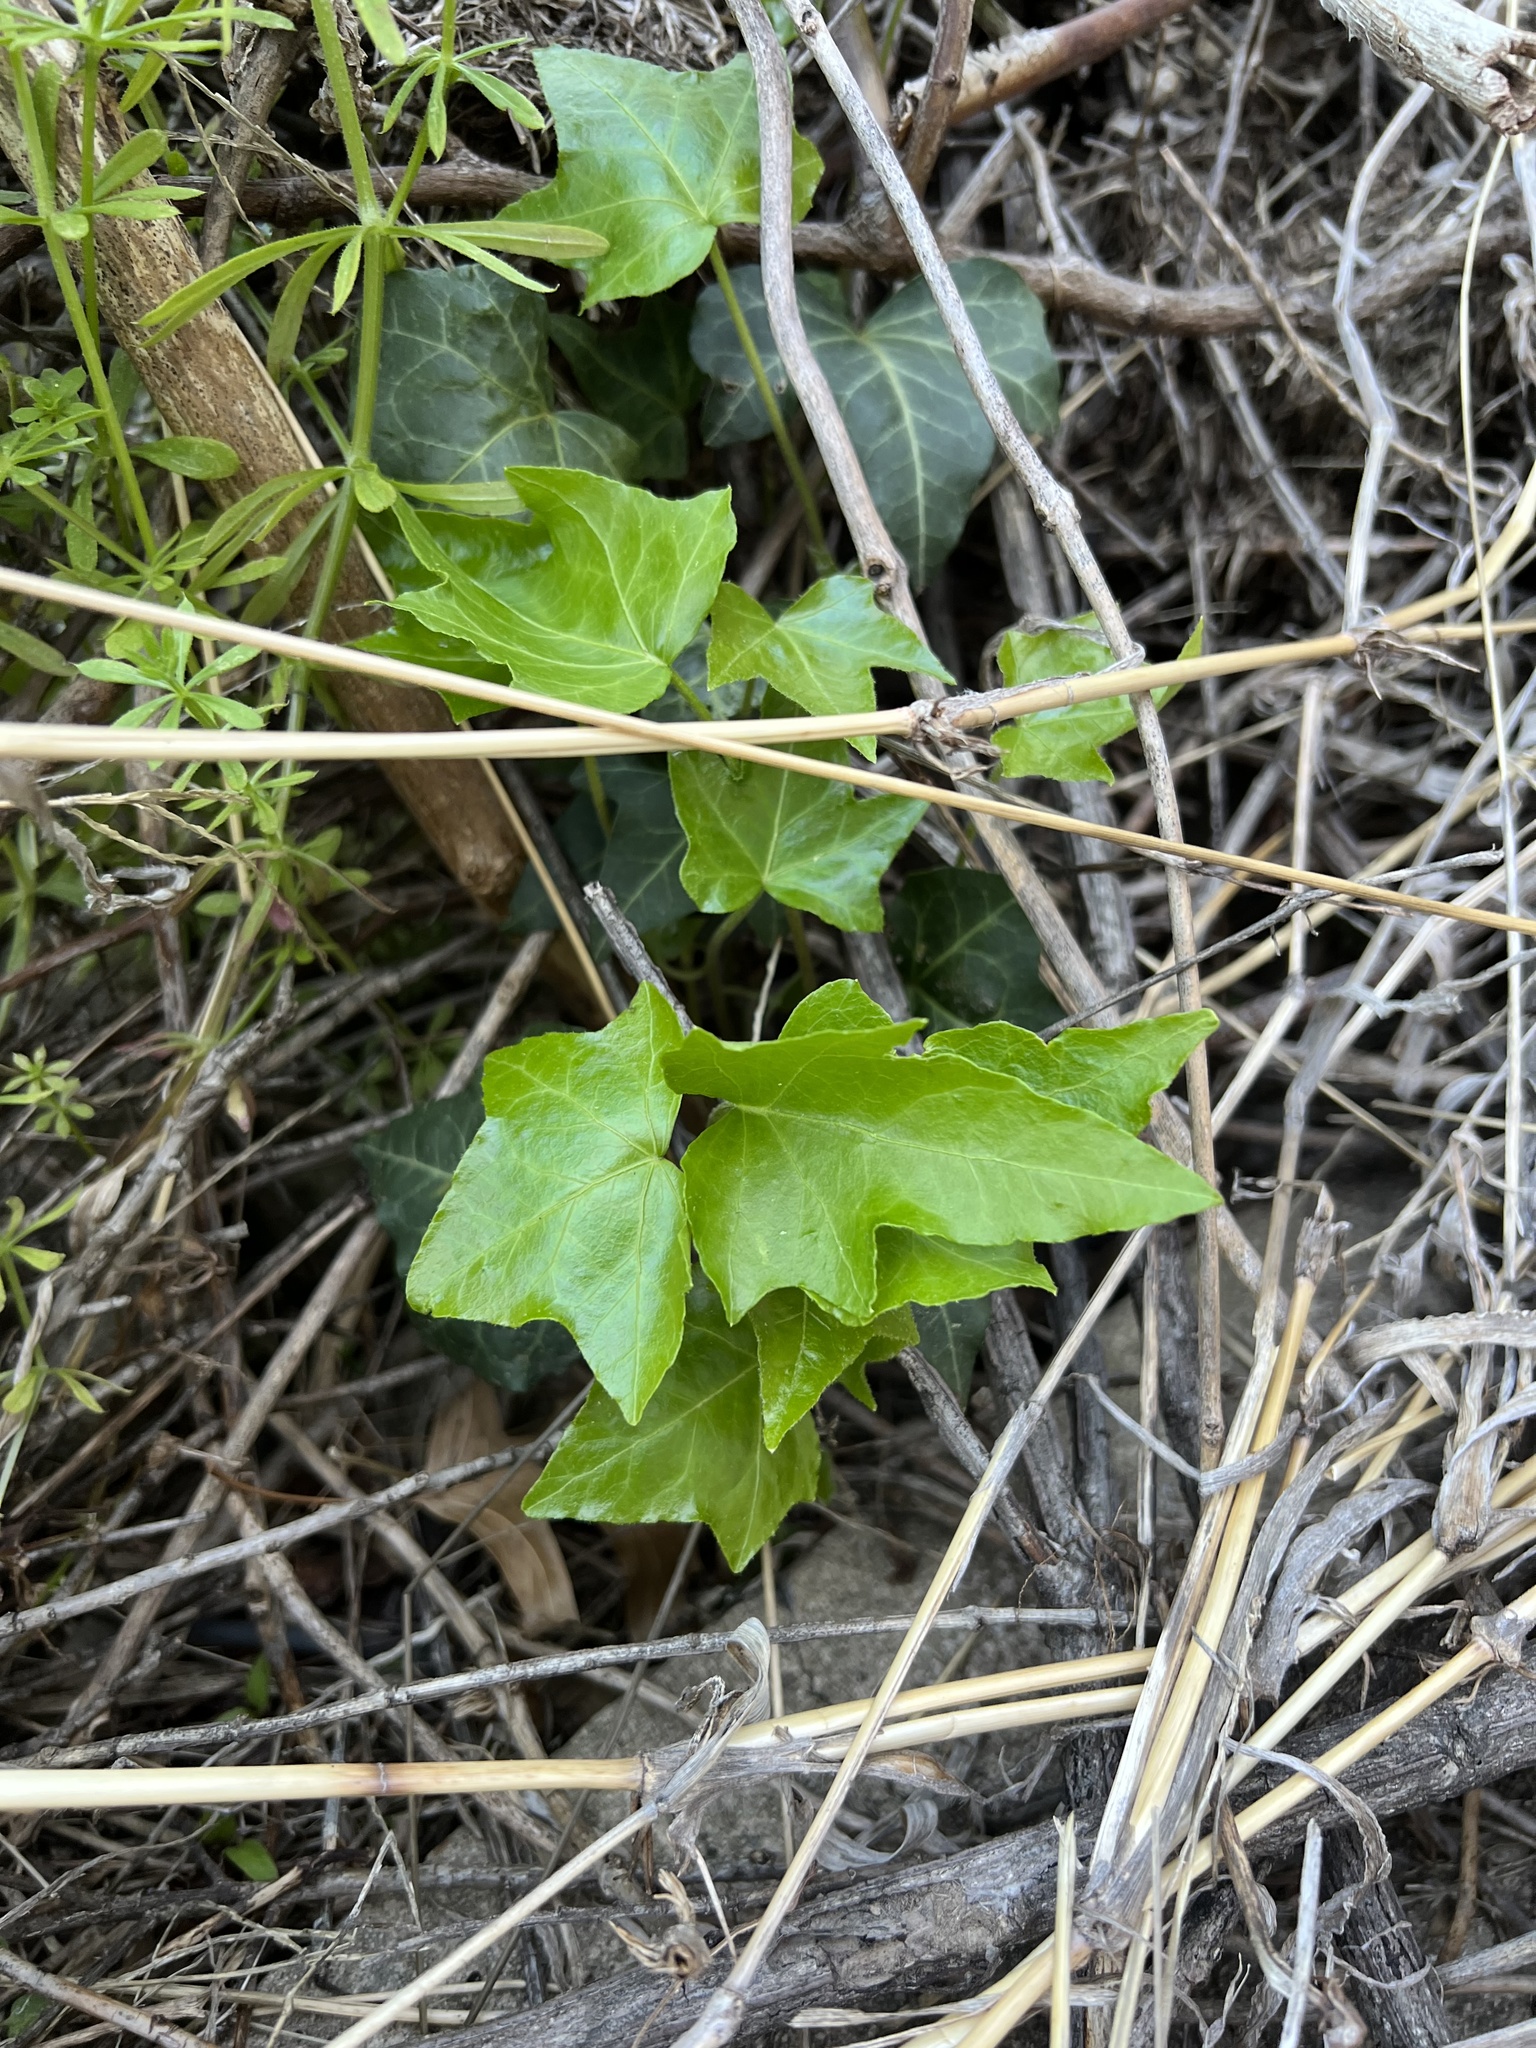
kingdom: Plantae
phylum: Tracheophyta
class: Magnoliopsida
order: Apiales
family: Araliaceae
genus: Hedera
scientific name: Hedera helix
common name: Ivy
